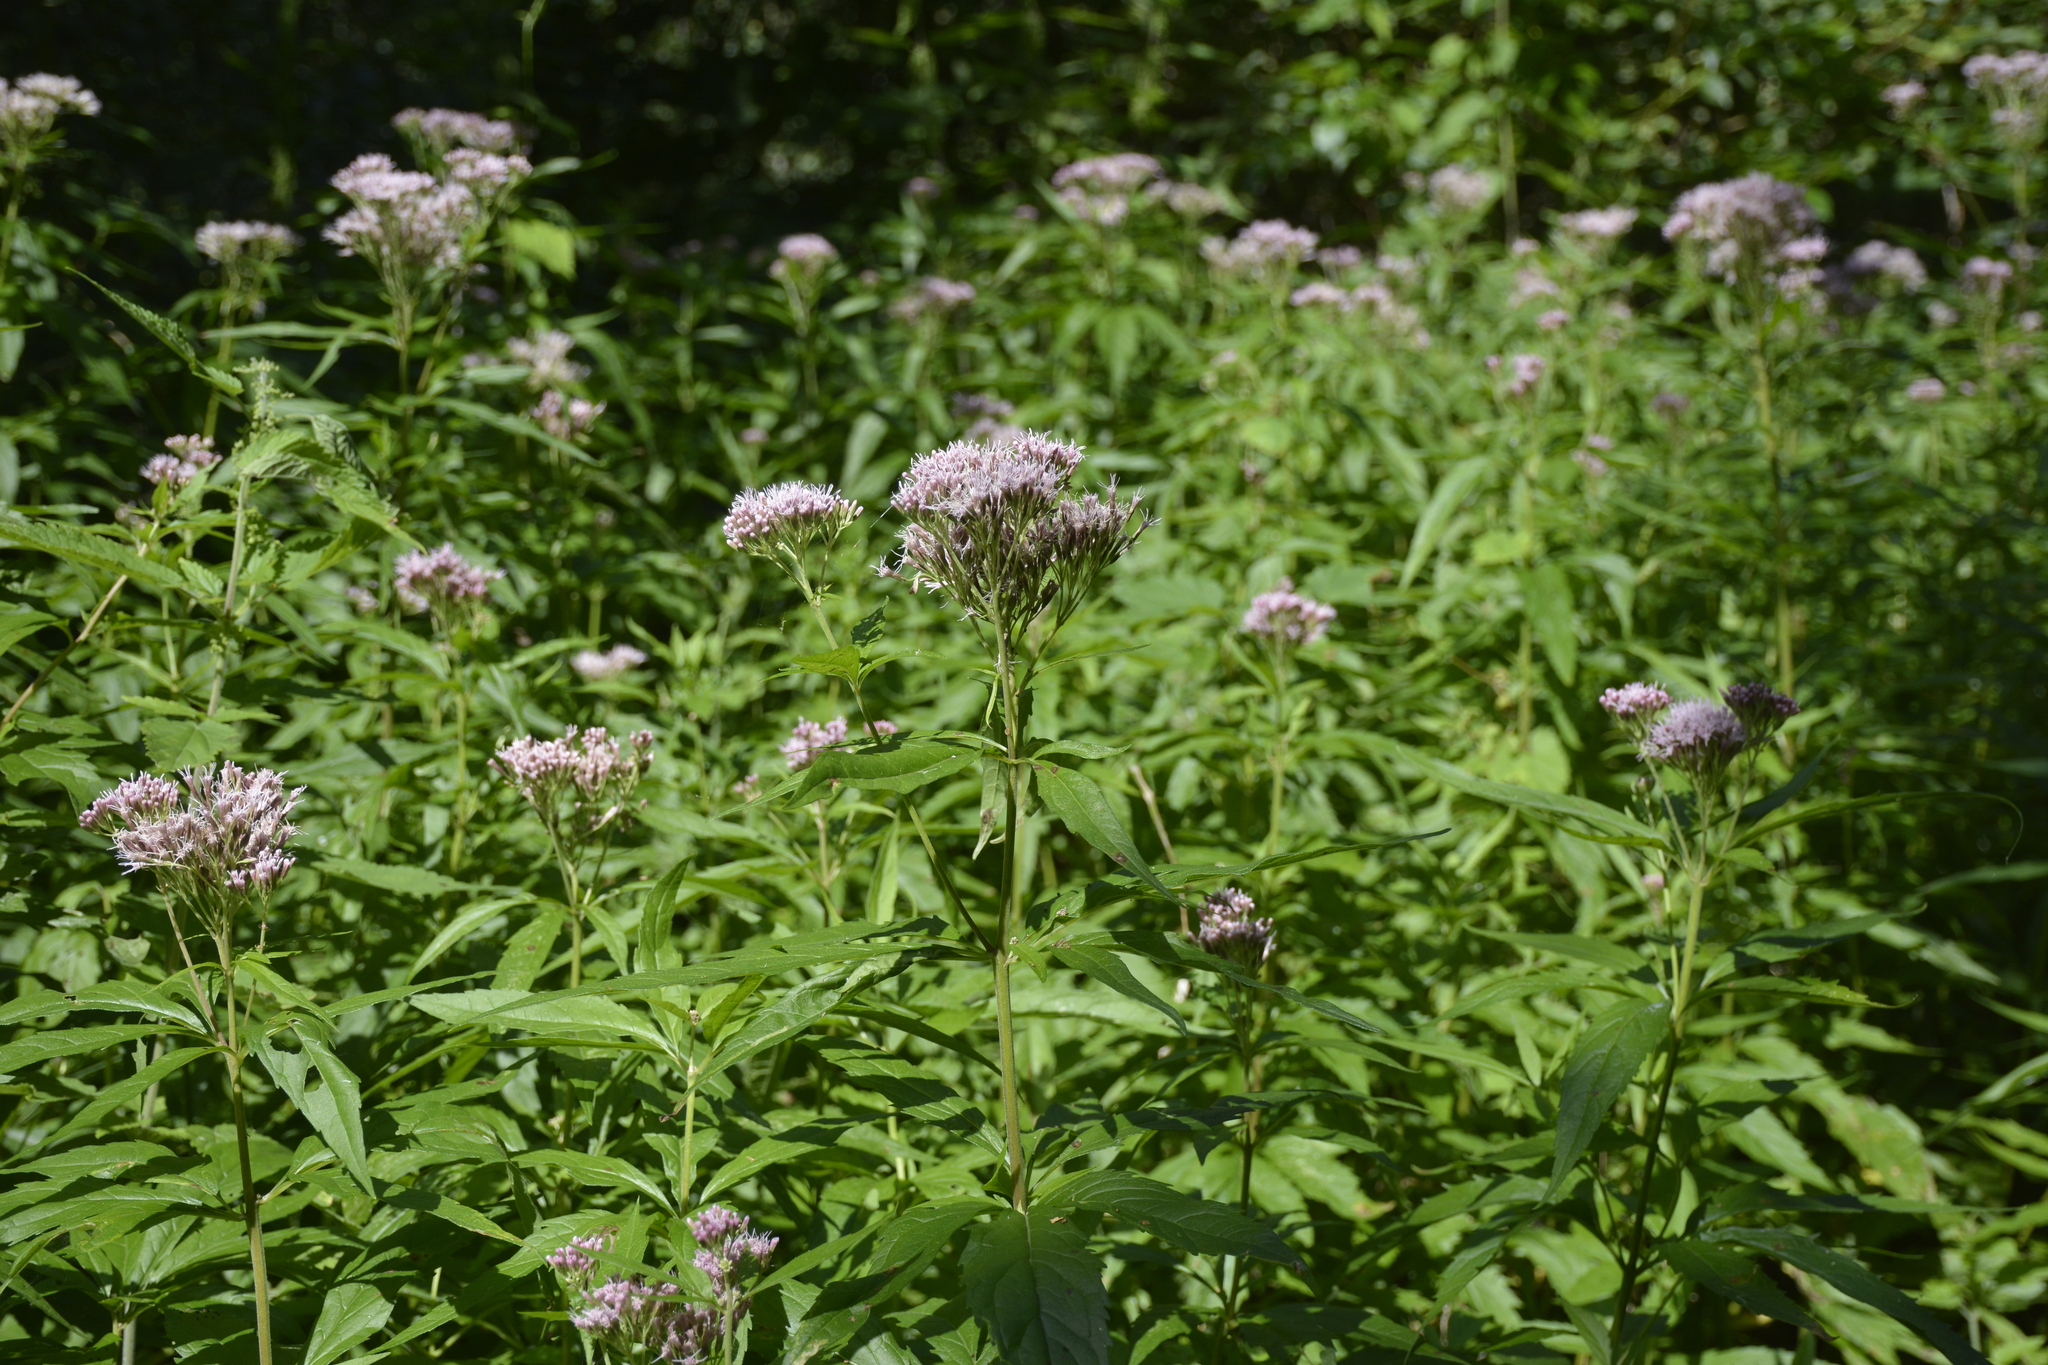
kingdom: Plantae
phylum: Tracheophyta
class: Magnoliopsida
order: Asterales
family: Asteraceae
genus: Eupatorium
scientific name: Eupatorium cannabinum
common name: Hemp-agrimony
